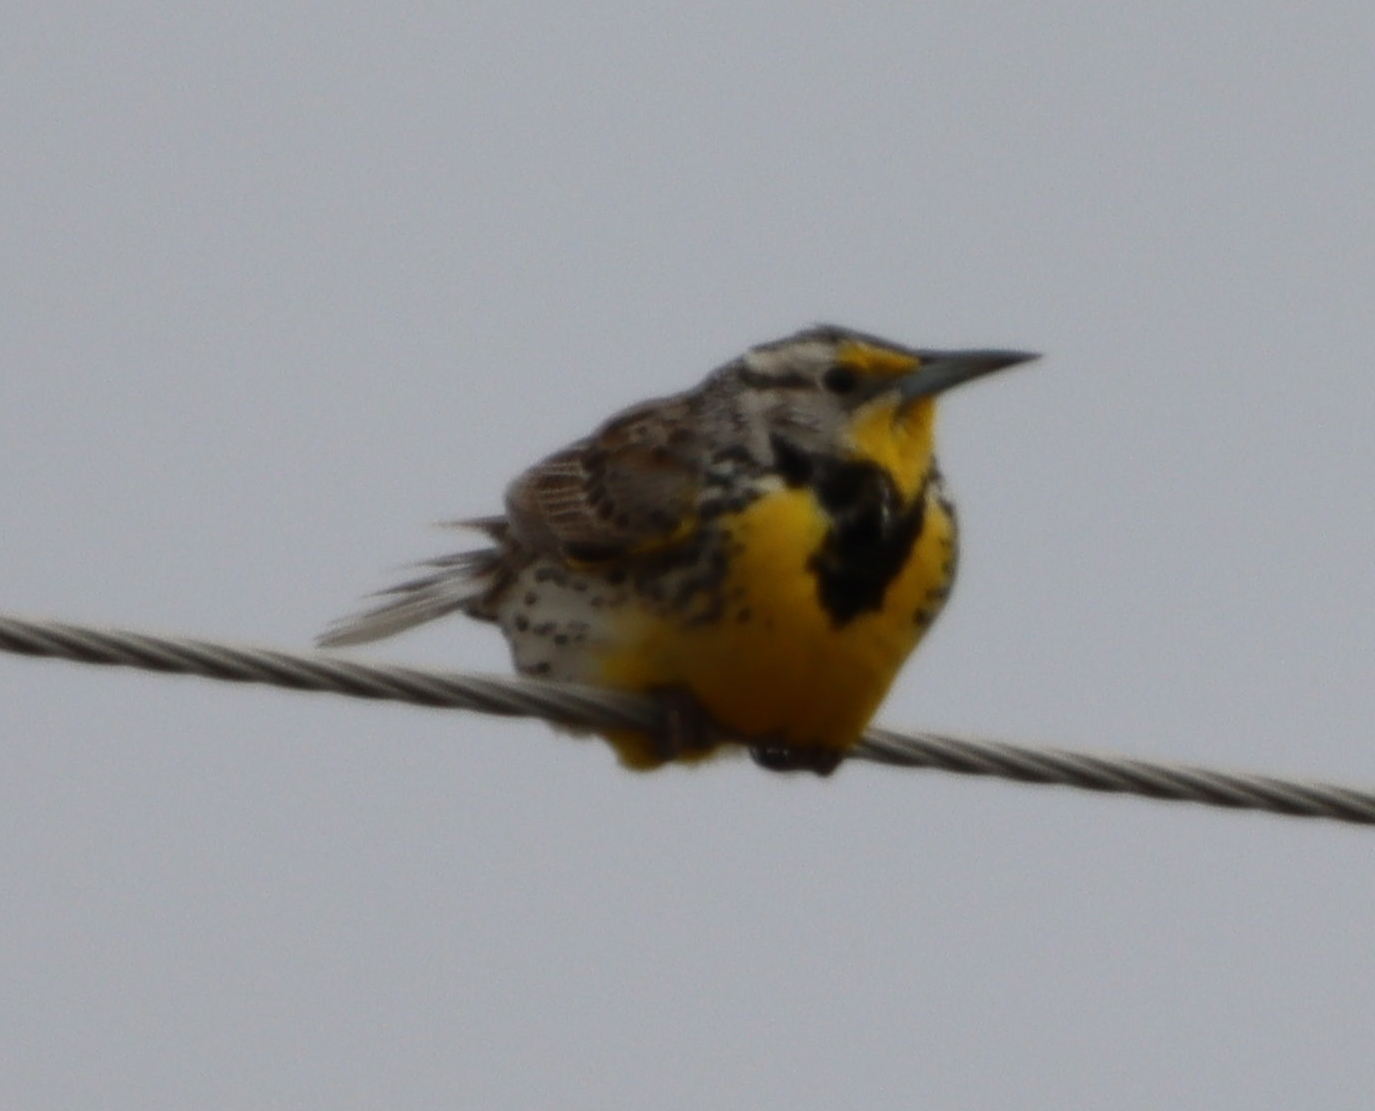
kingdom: Animalia
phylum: Chordata
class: Aves
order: Passeriformes
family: Icteridae
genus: Sturnella
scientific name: Sturnella neglecta
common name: Western meadowlark
